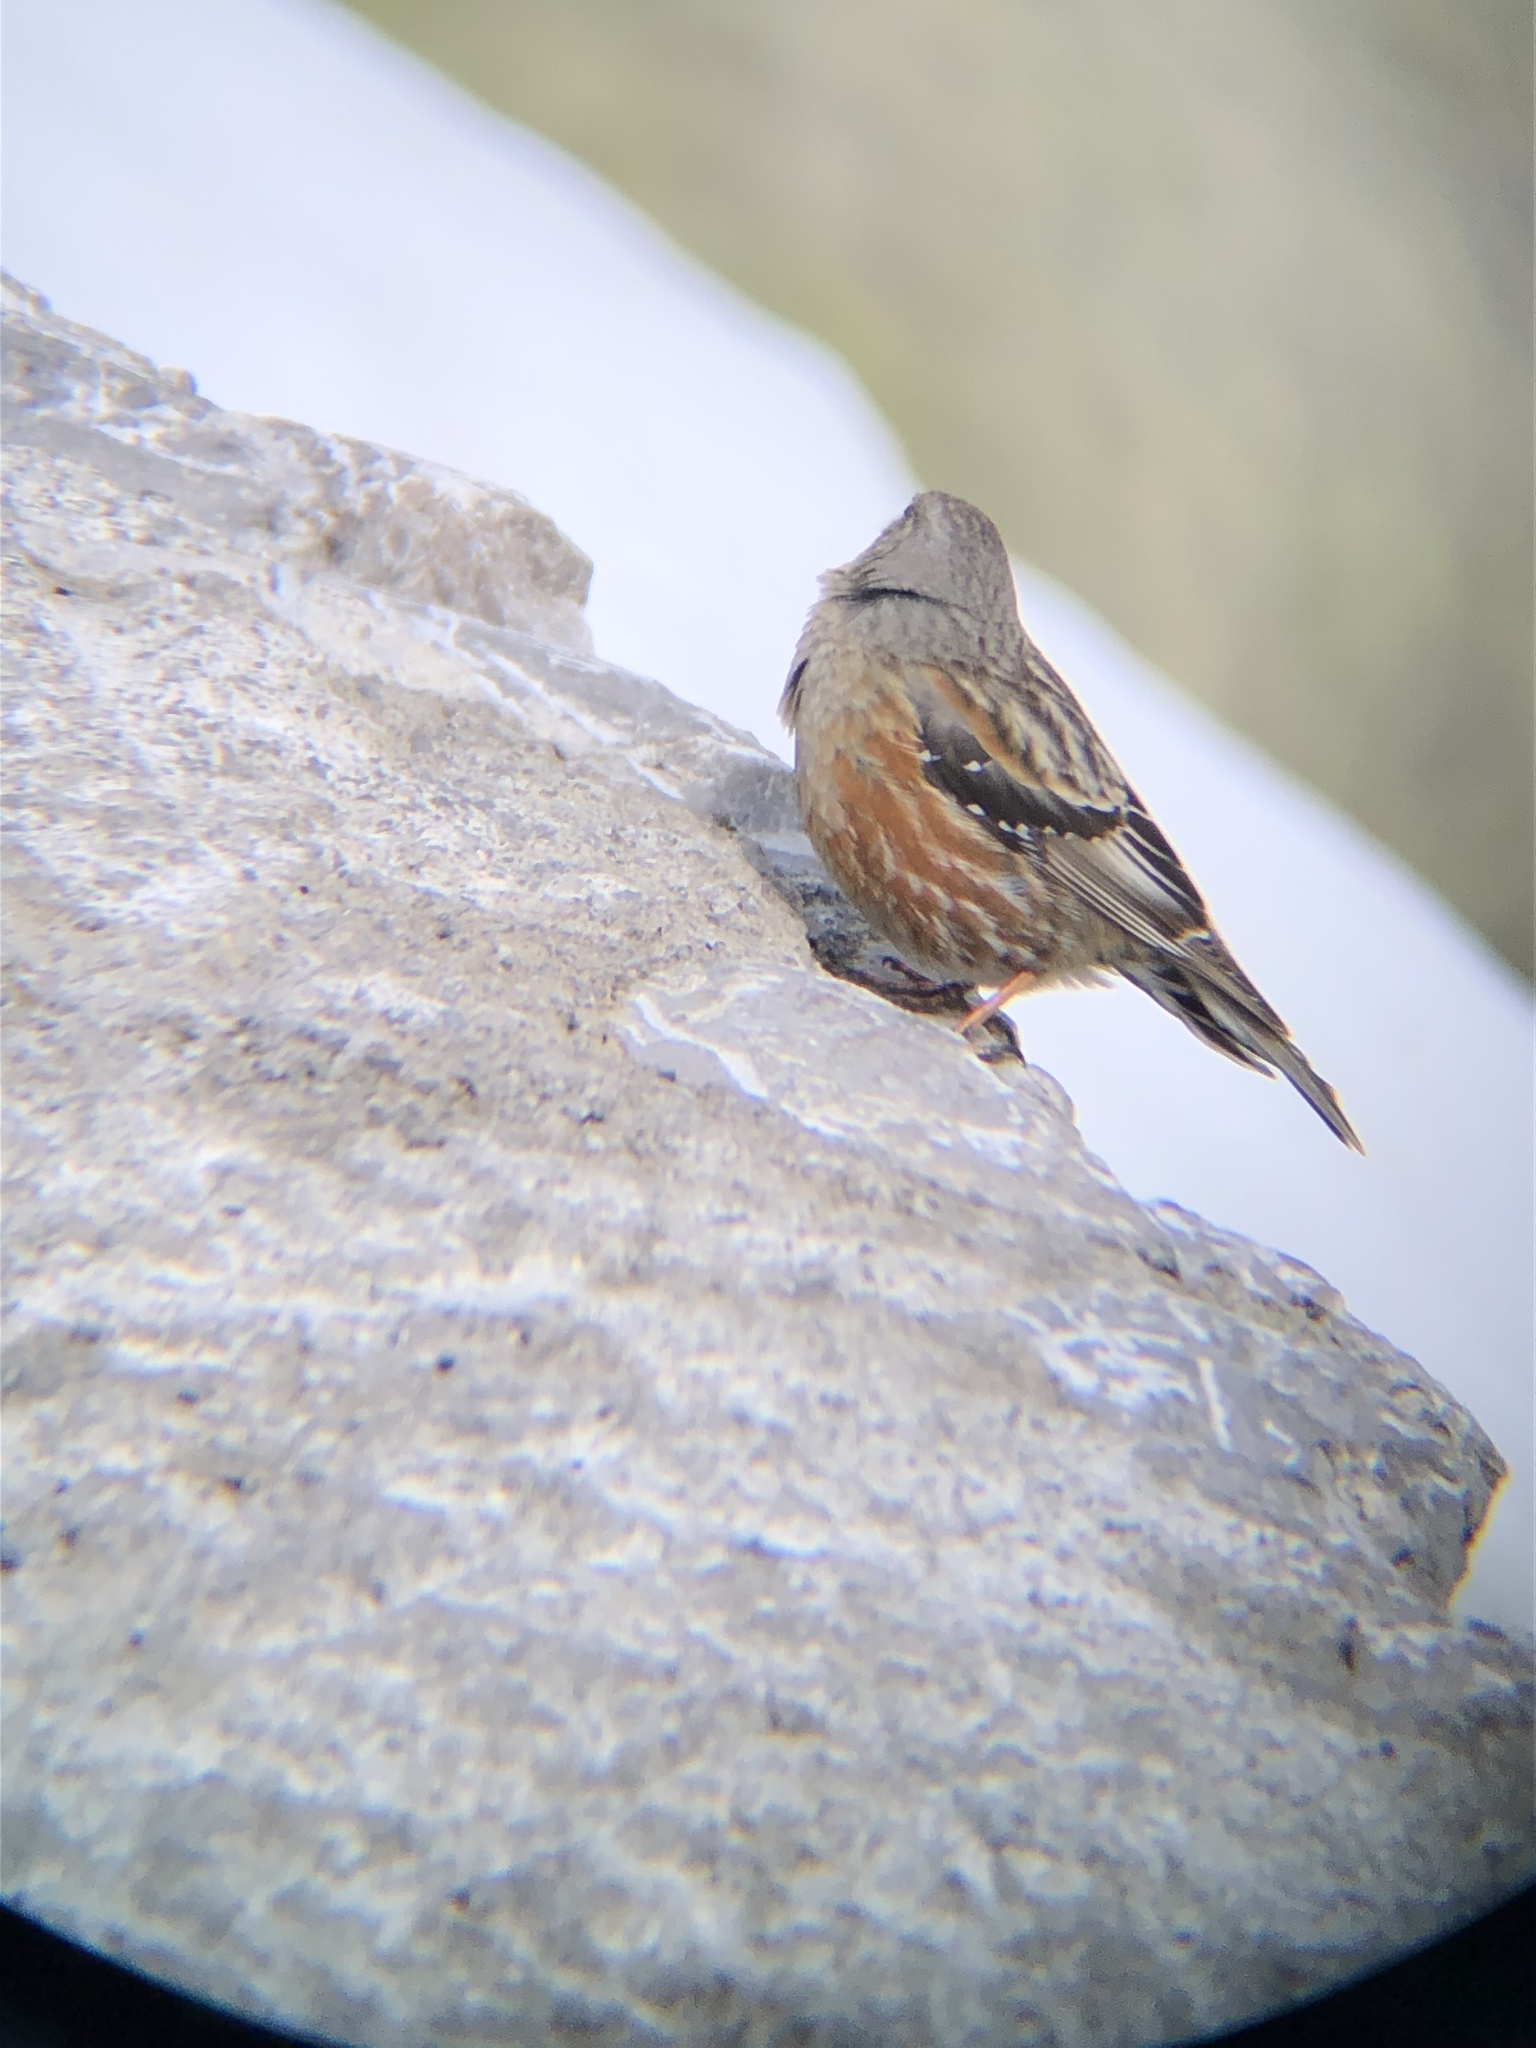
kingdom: Animalia
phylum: Chordata
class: Aves
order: Passeriformes
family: Prunellidae
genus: Prunella
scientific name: Prunella collaris
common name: Alpine accentor
